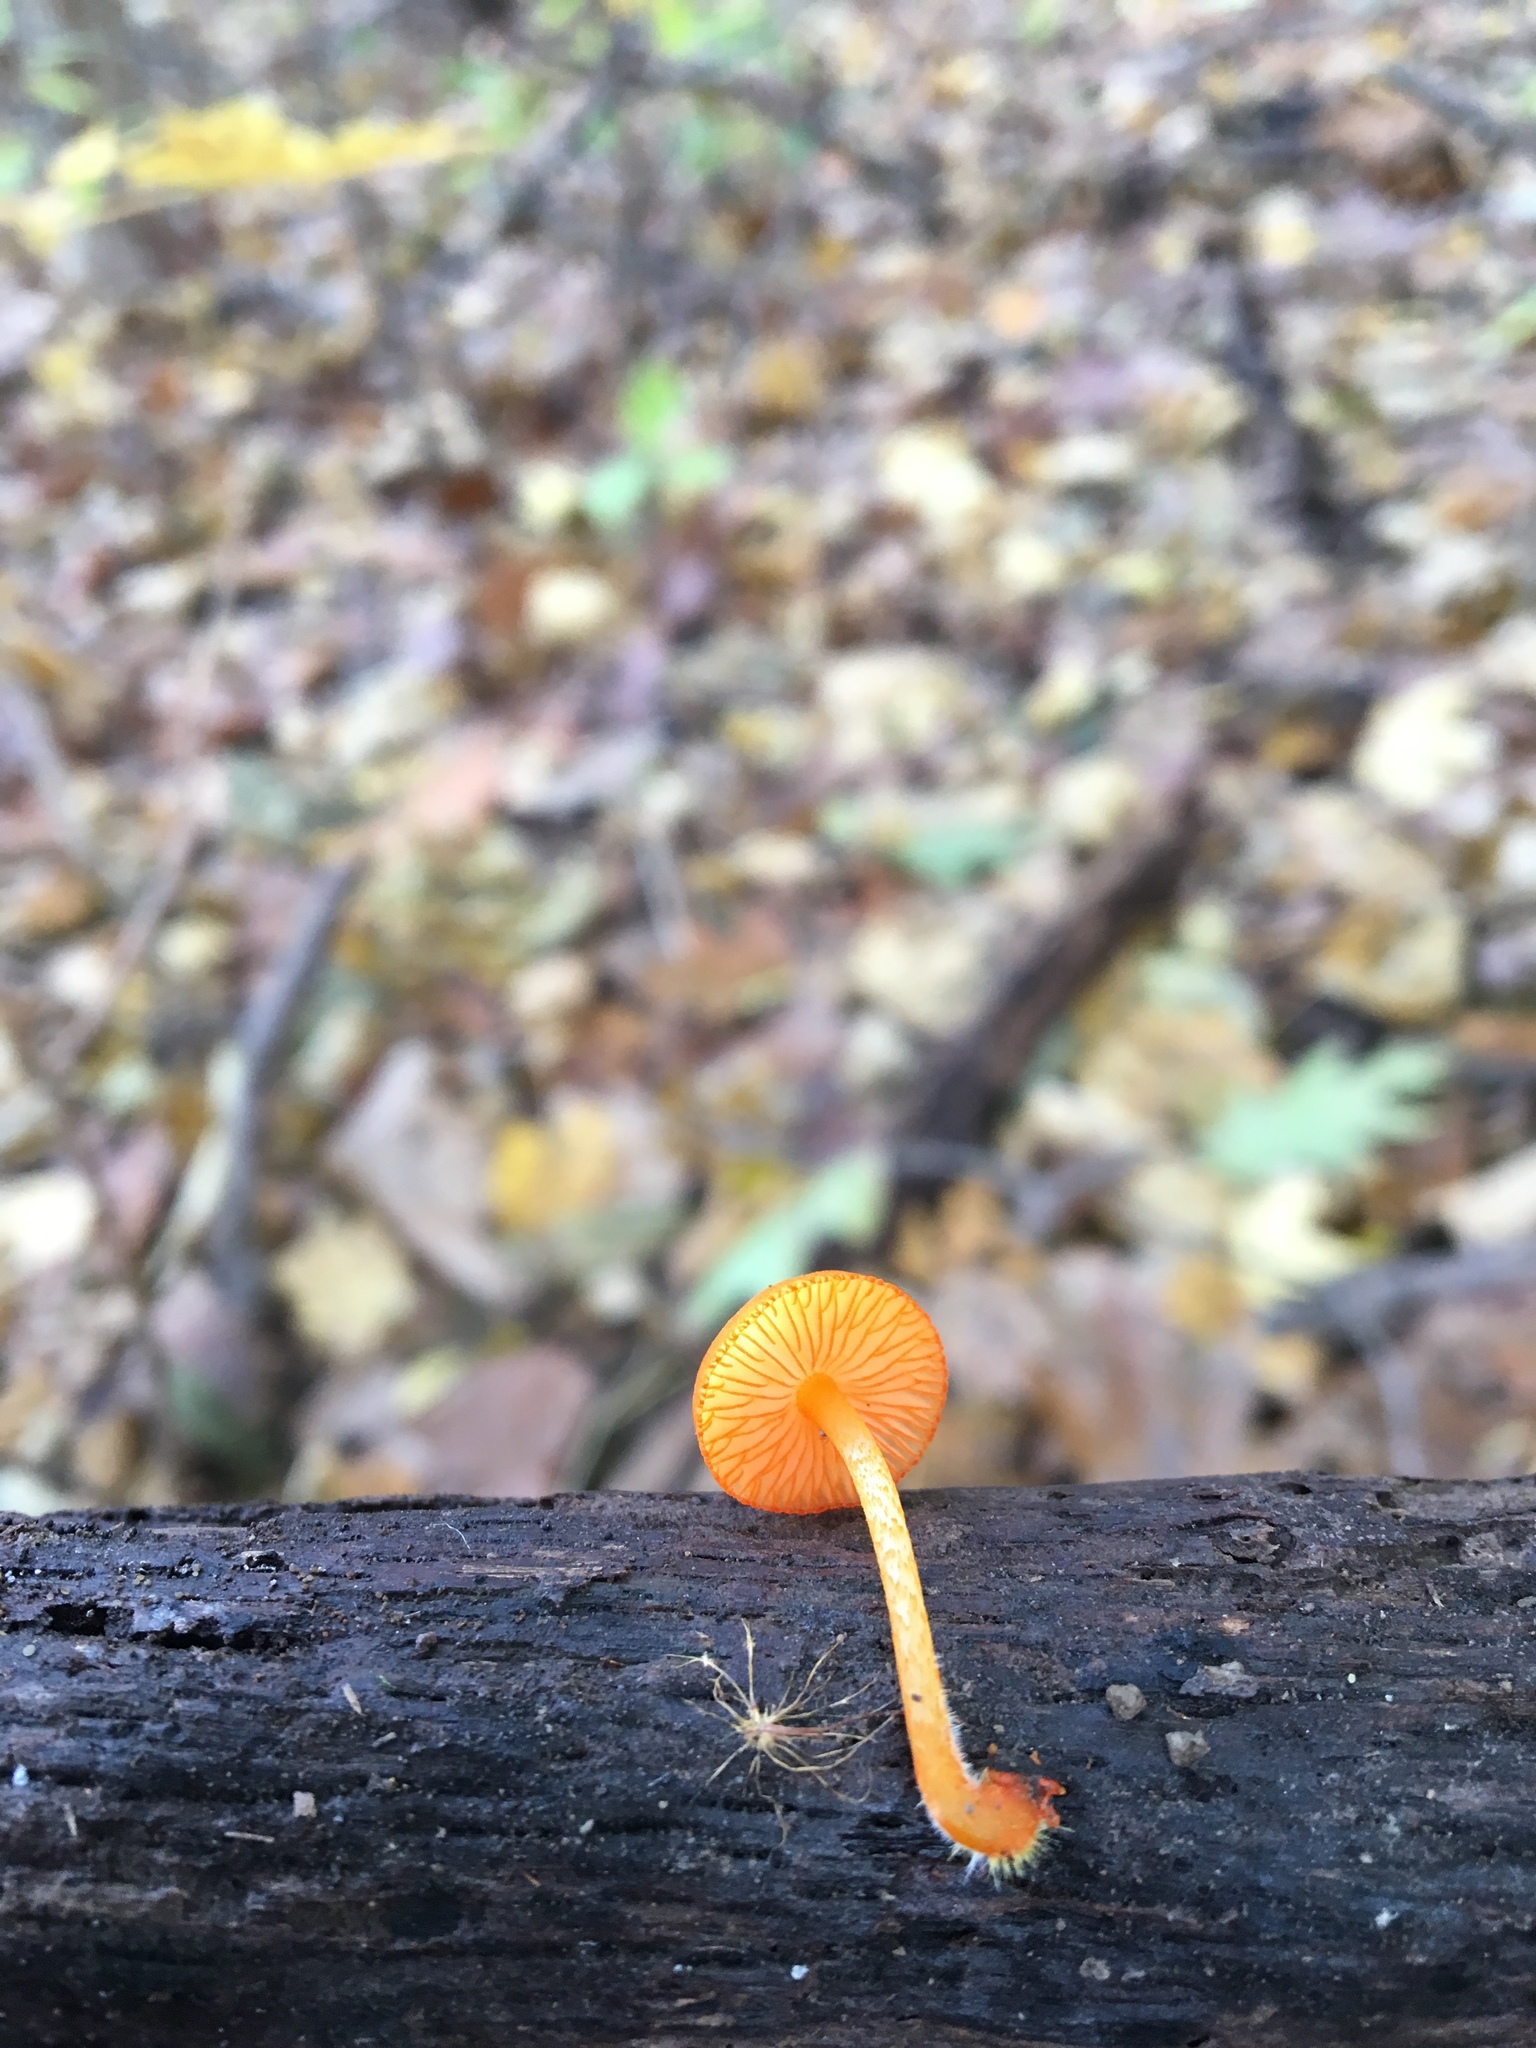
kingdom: Fungi
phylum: Basidiomycota
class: Agaricomycetes
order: Agaricales
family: Mycenaceae
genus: Mycena
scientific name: Mycena leaiana
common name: Orange mycena
